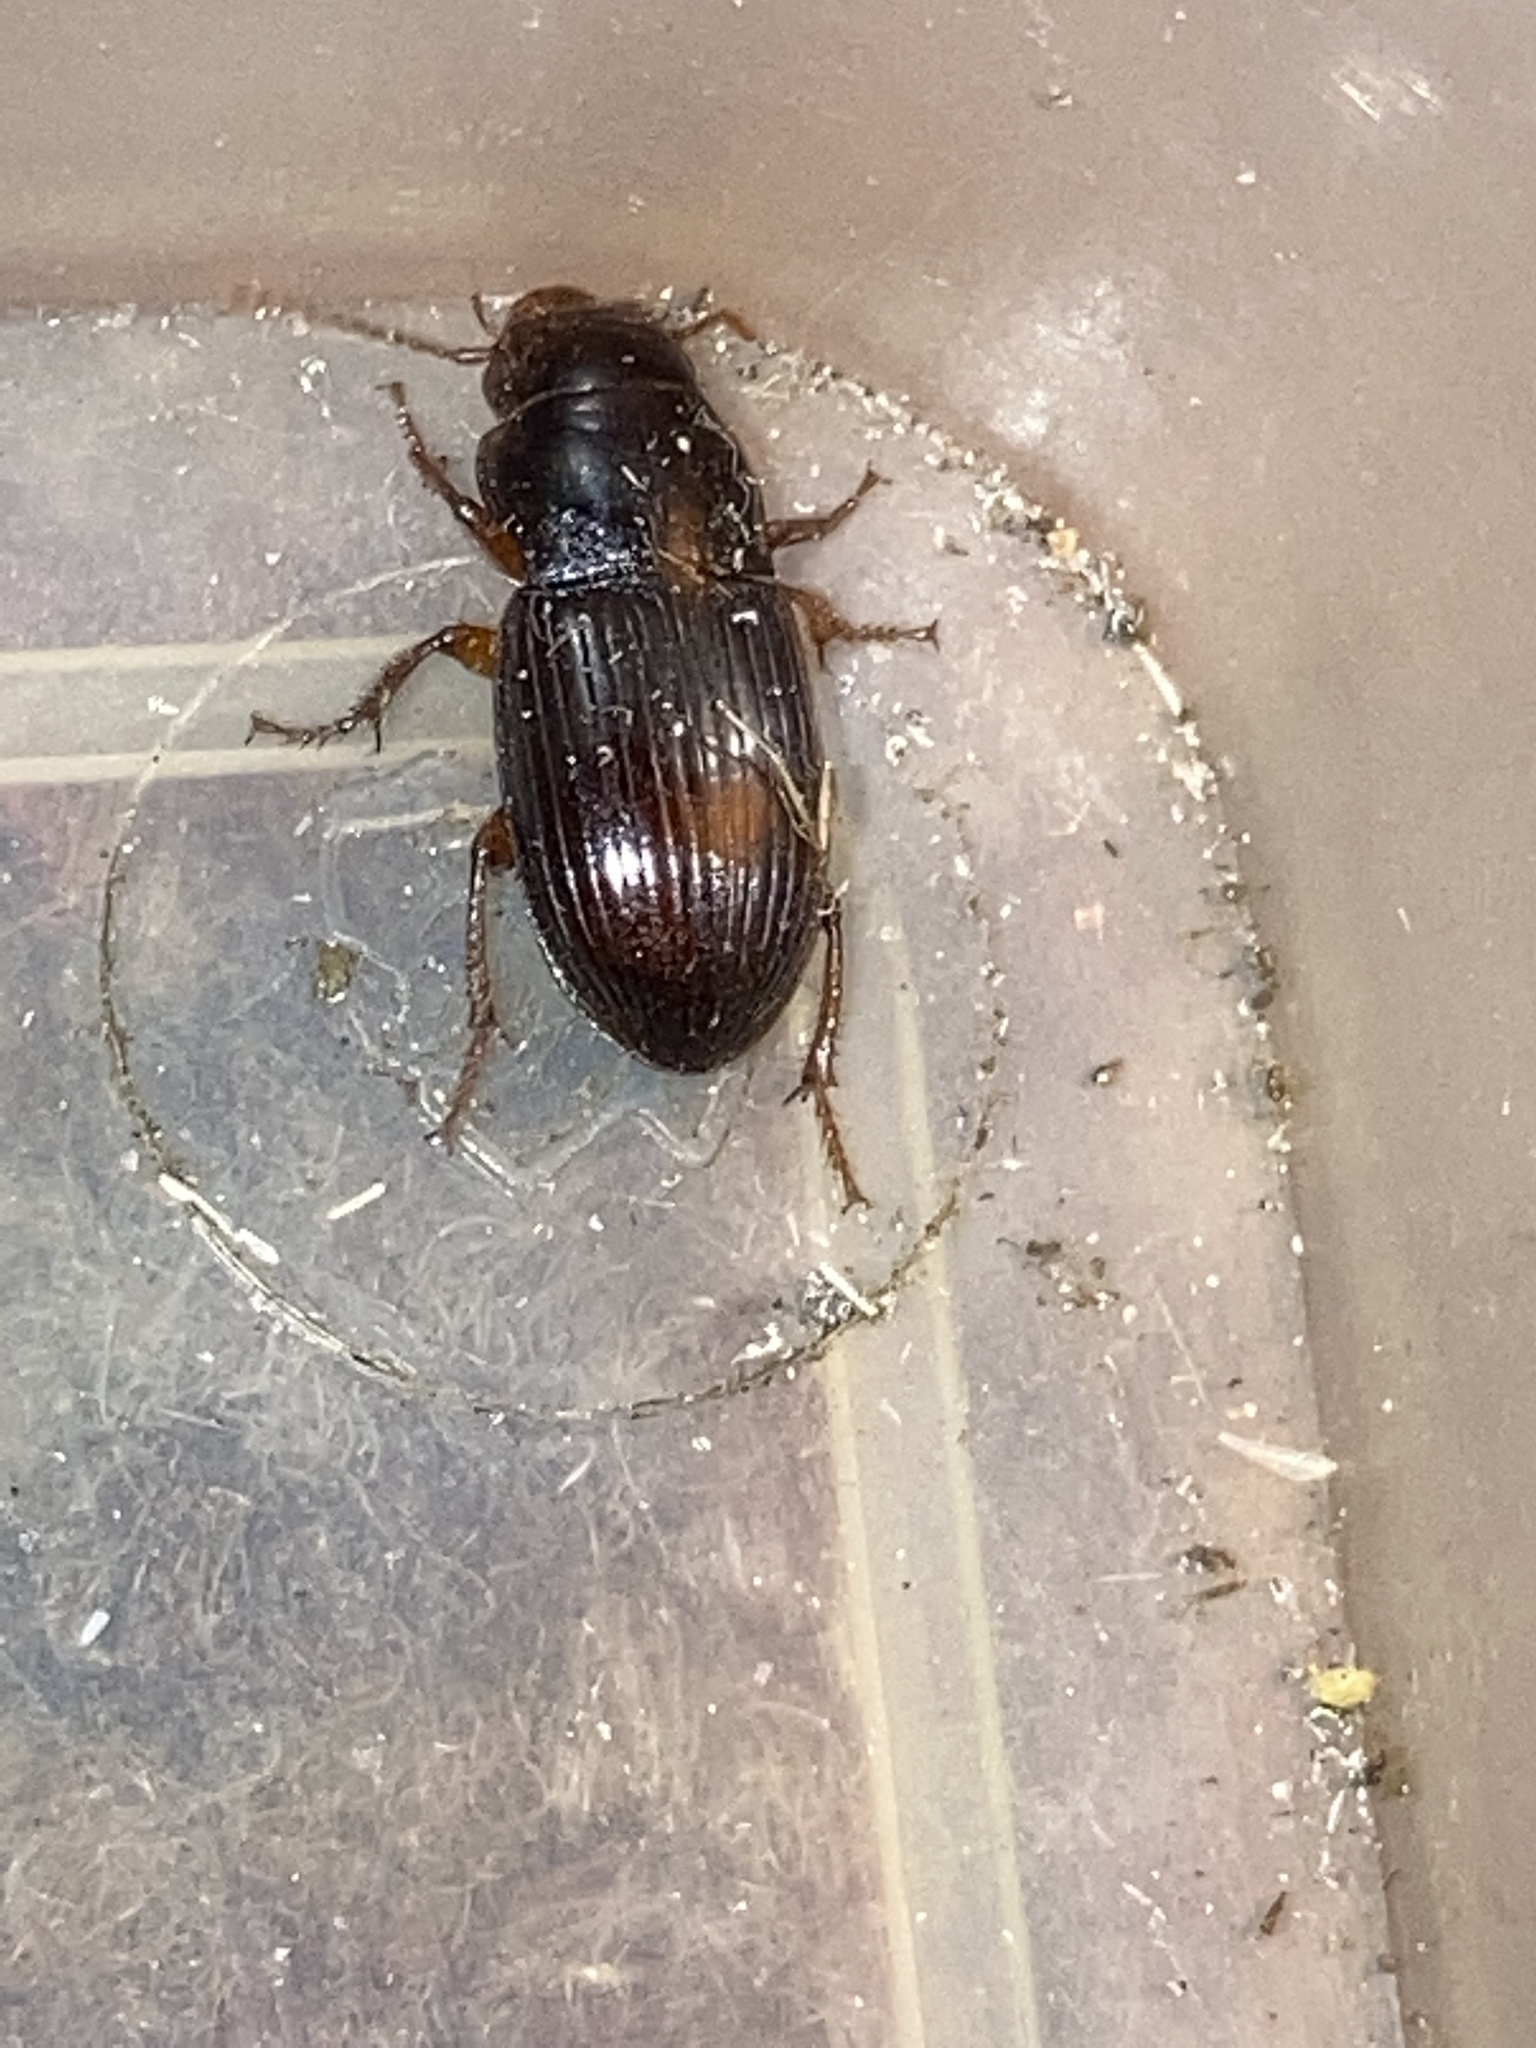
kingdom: Animalia
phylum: Arthropoda
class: Insecta
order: Coleoptera
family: Carabidae
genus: Cratacanthus
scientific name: Cratacanthus dubius
